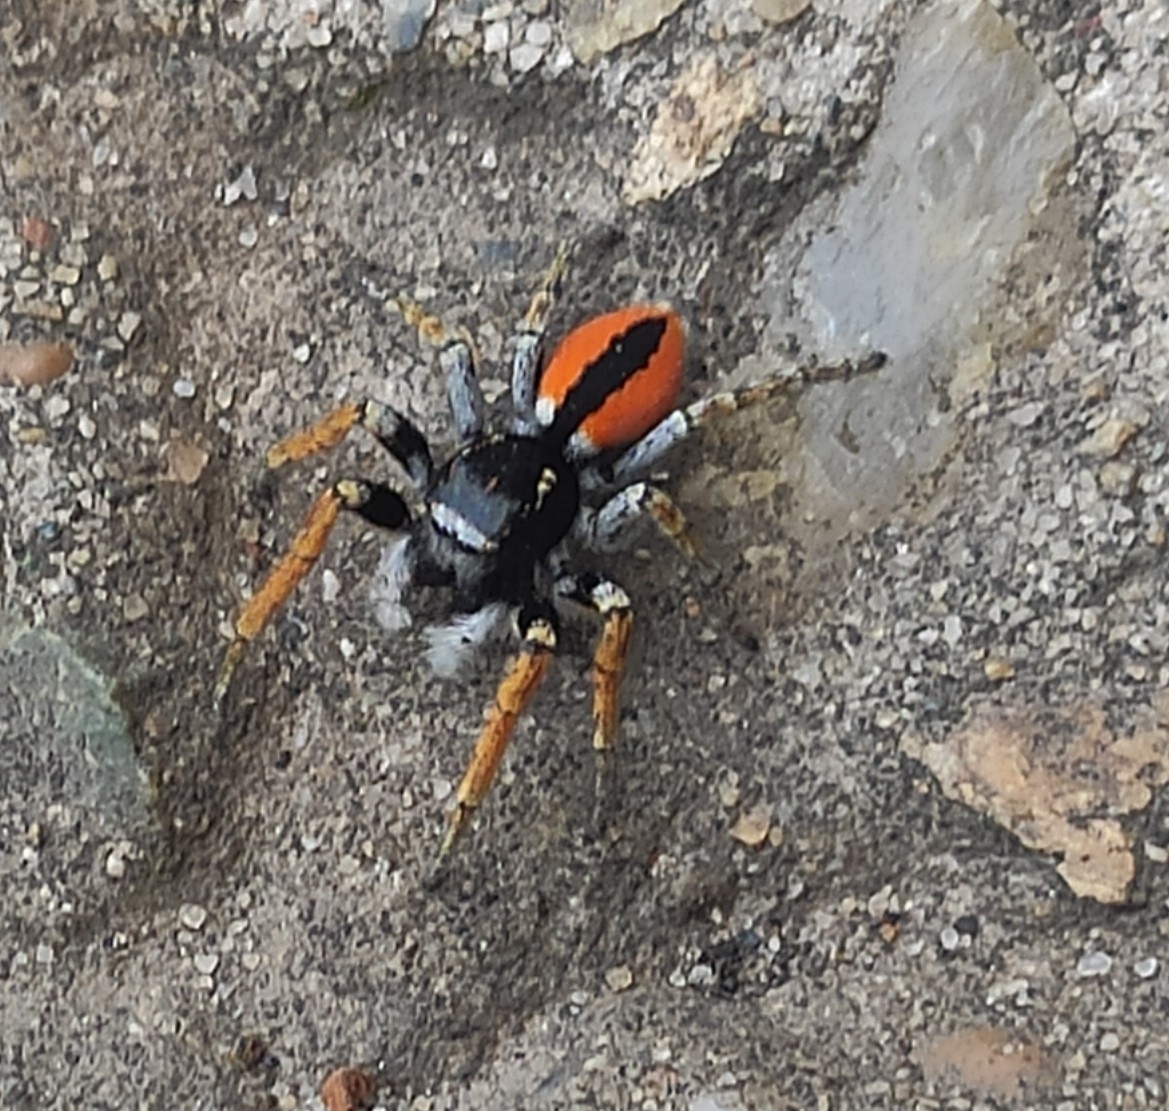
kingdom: Animalia
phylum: Arthropoda
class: Arachnida
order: Araneae
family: Salticidae
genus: Philaeus
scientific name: Philaeus chrysops
